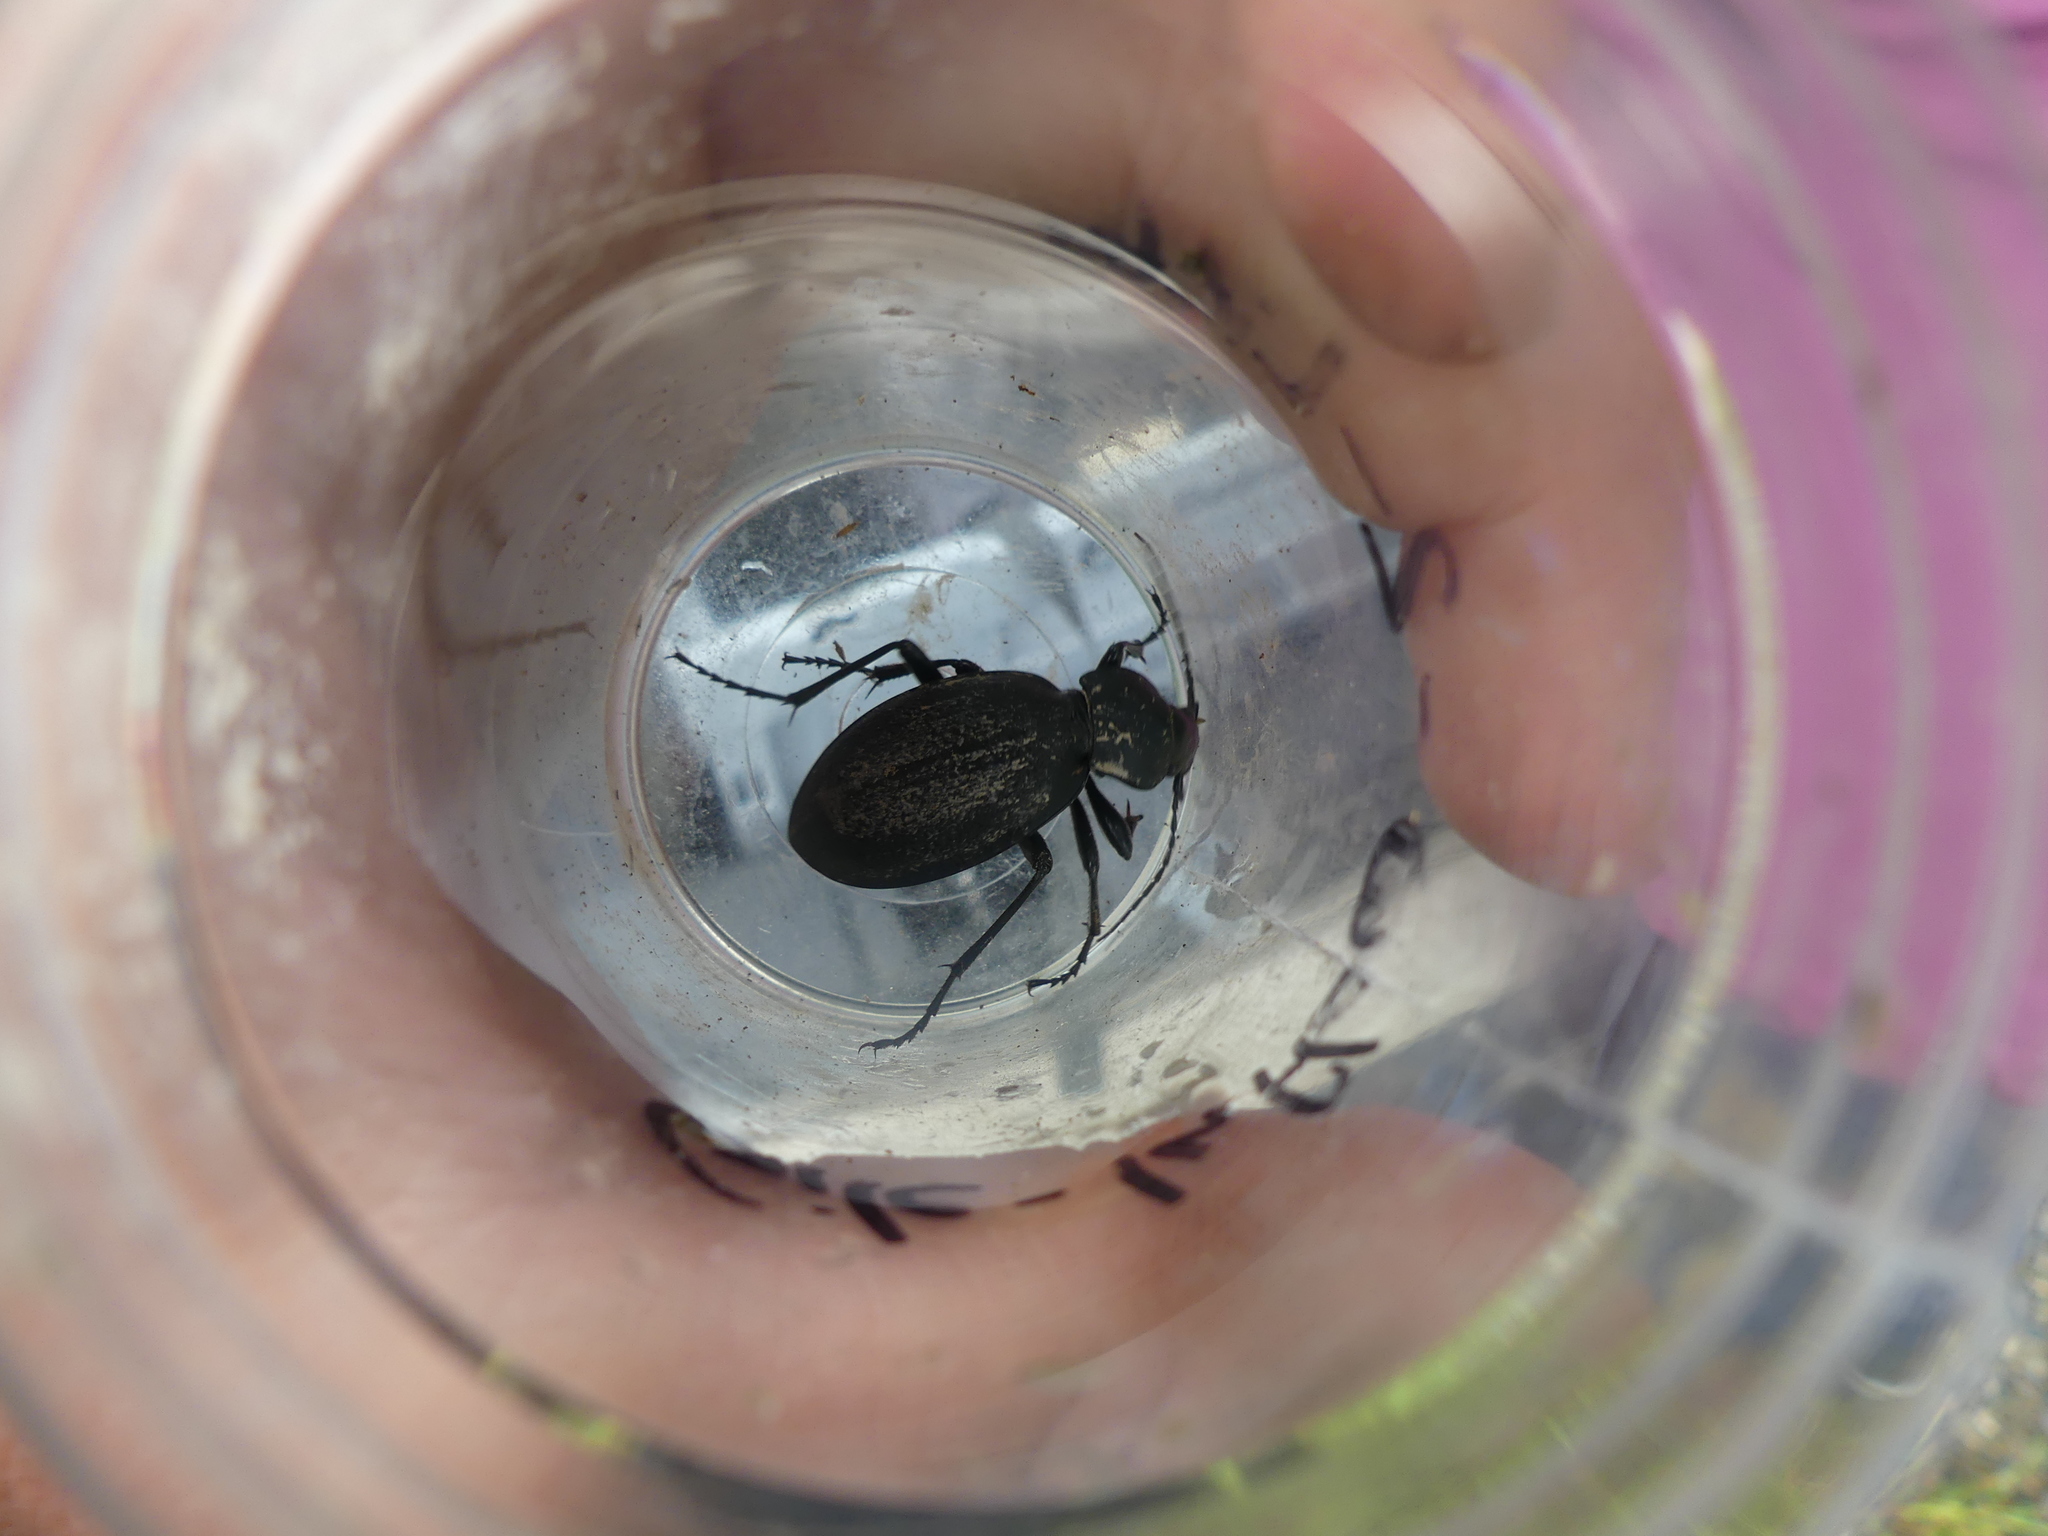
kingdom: Animalia
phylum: Arthropoda
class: Insecta
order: Coleoptera
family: Carabidae
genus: Carabus
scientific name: Carabus coriaceus
